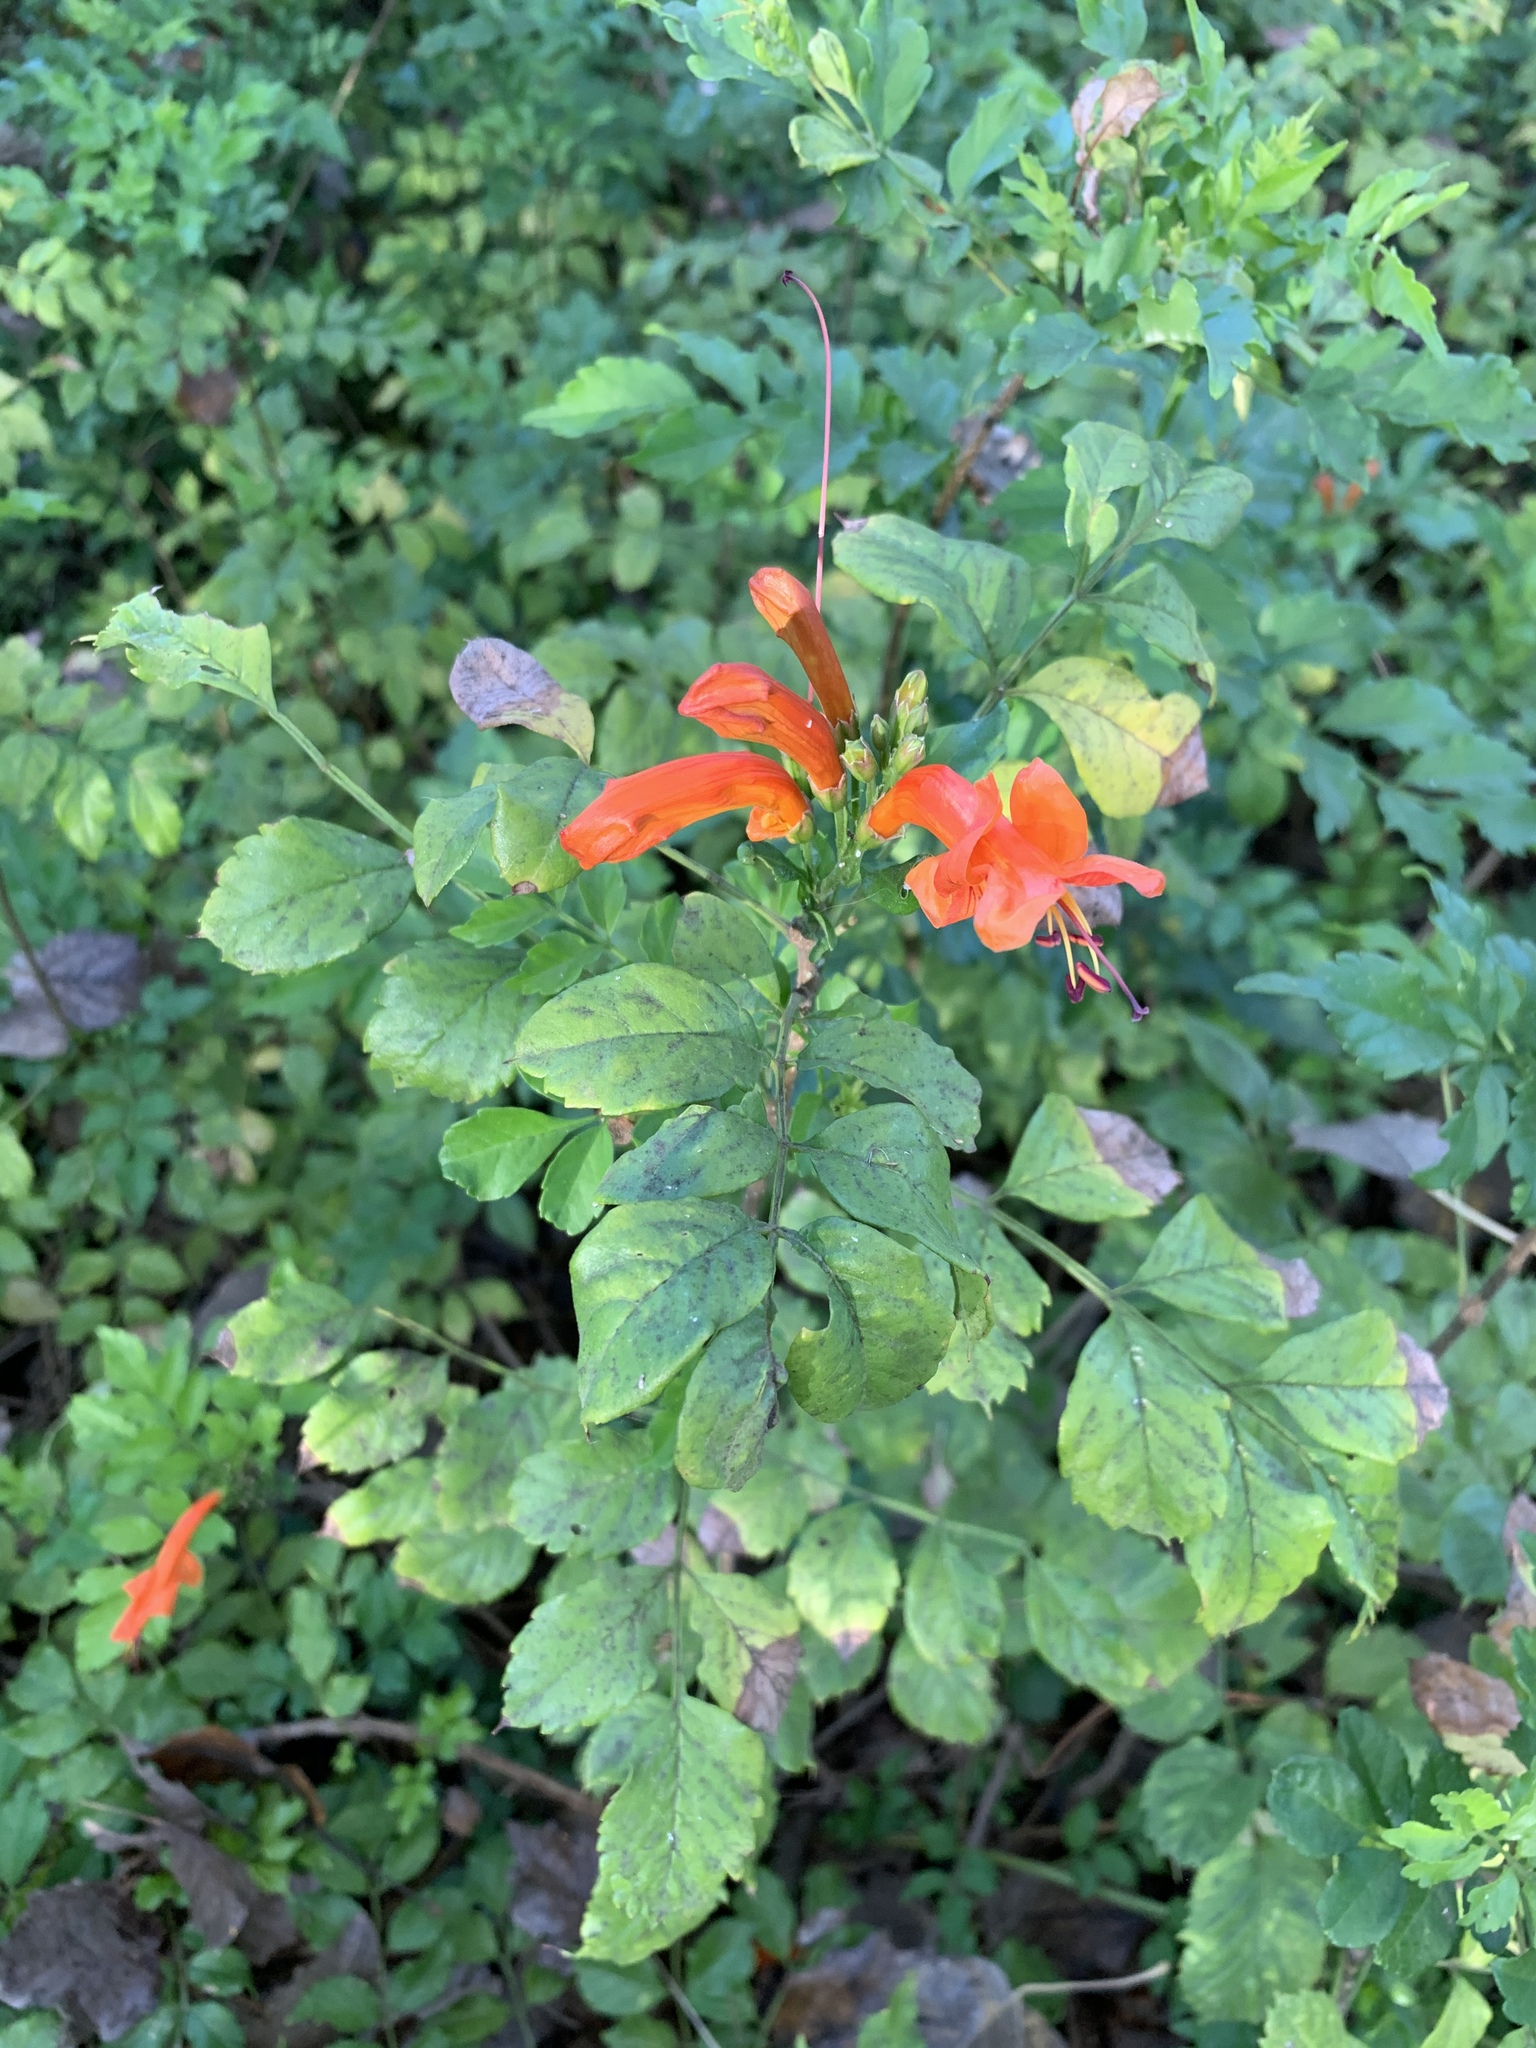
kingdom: Plantae
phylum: Tracheophyta
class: Magnoliopsida
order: Lamiales
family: Bignoniaceae
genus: Tecomaria
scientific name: Tecomaria capensis
